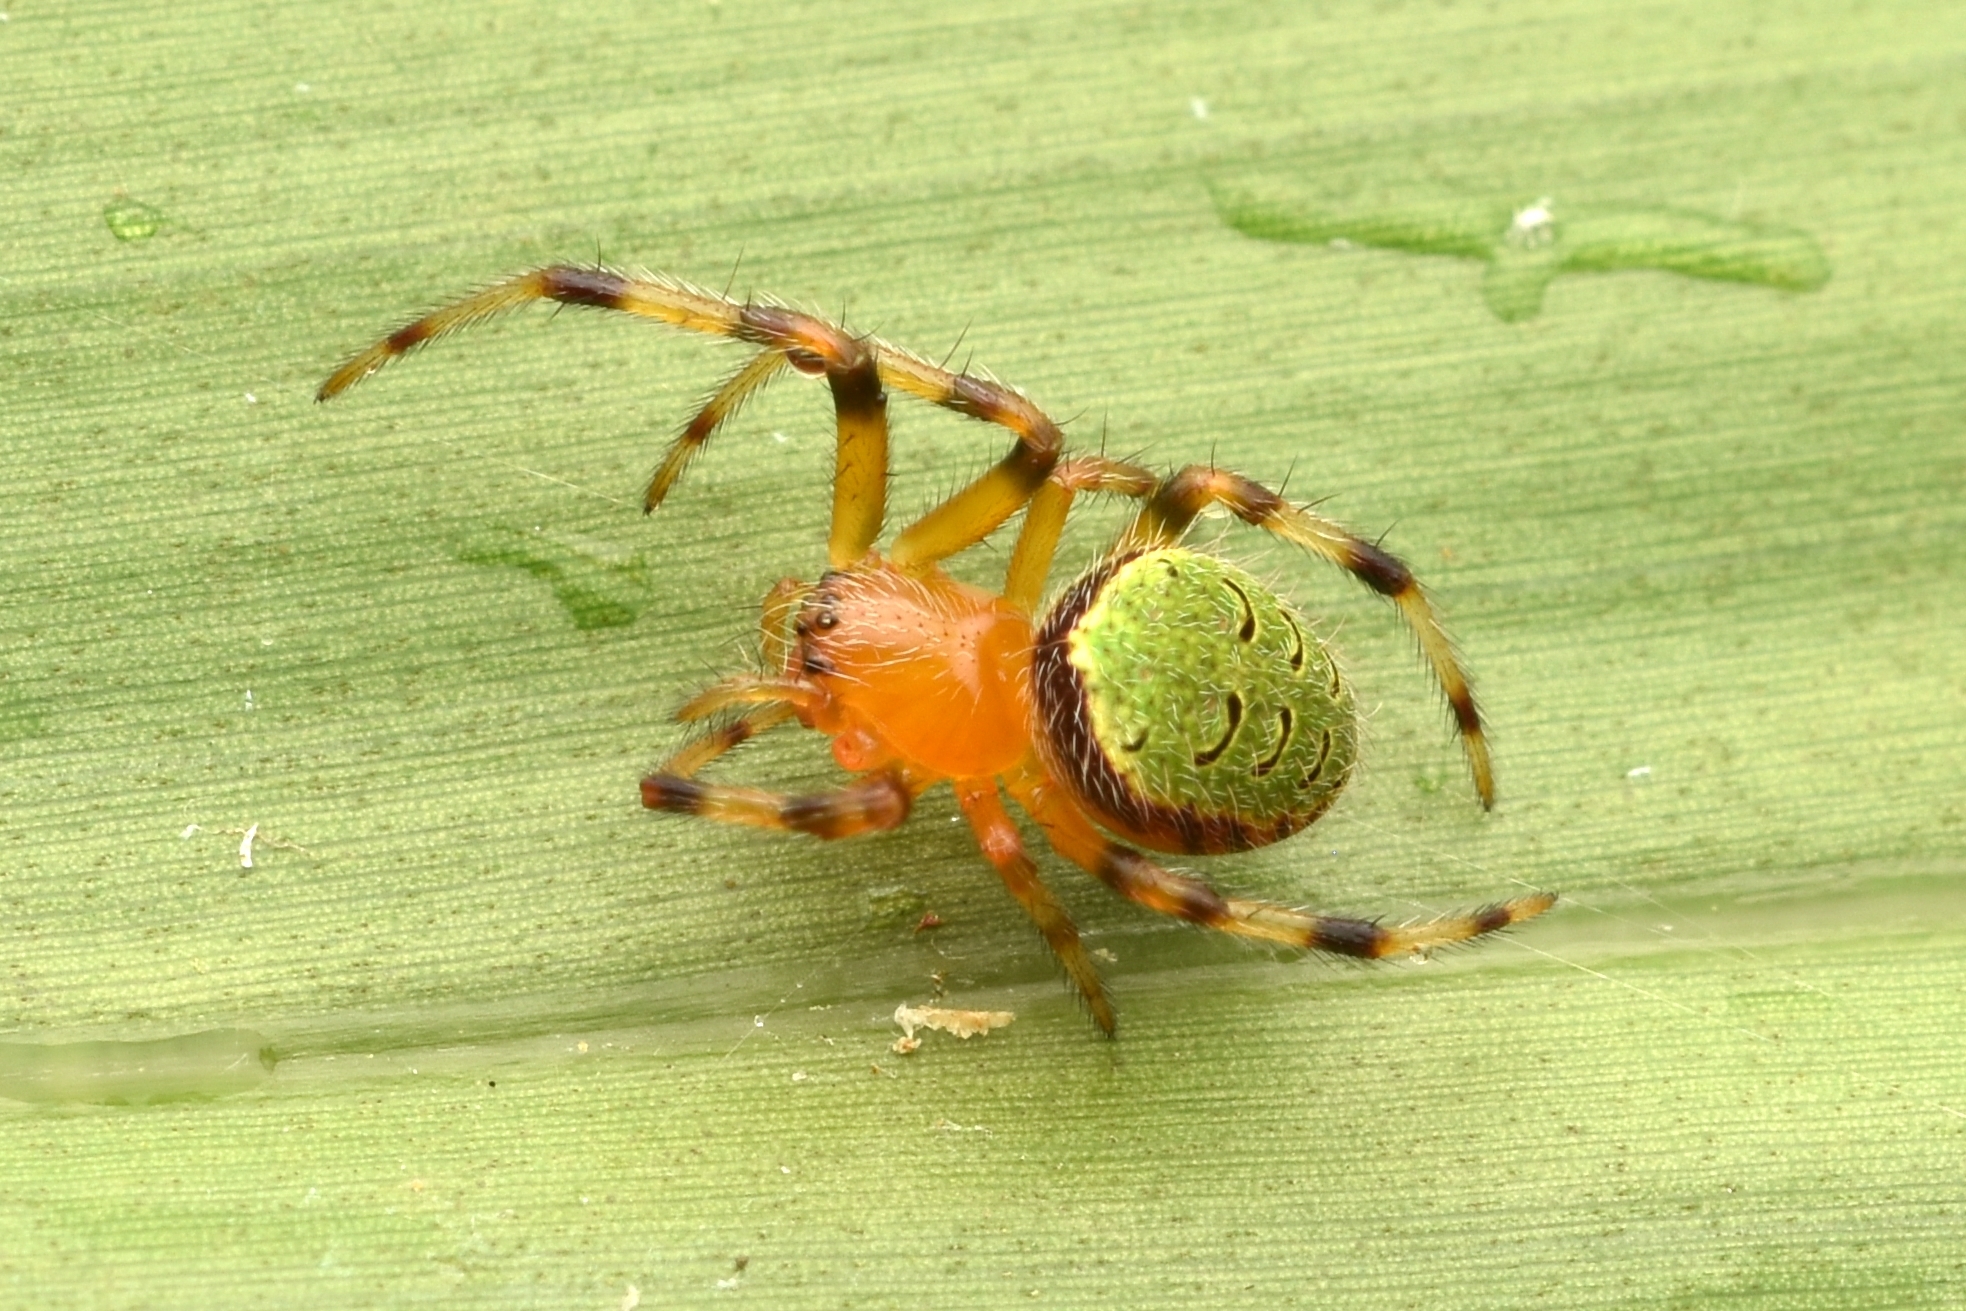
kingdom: Animalia
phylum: Arthropoda
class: Arachnida
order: Araneae
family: Araneidae
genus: Eriophora
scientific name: Eriophora ravilla
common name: Orb weavers
